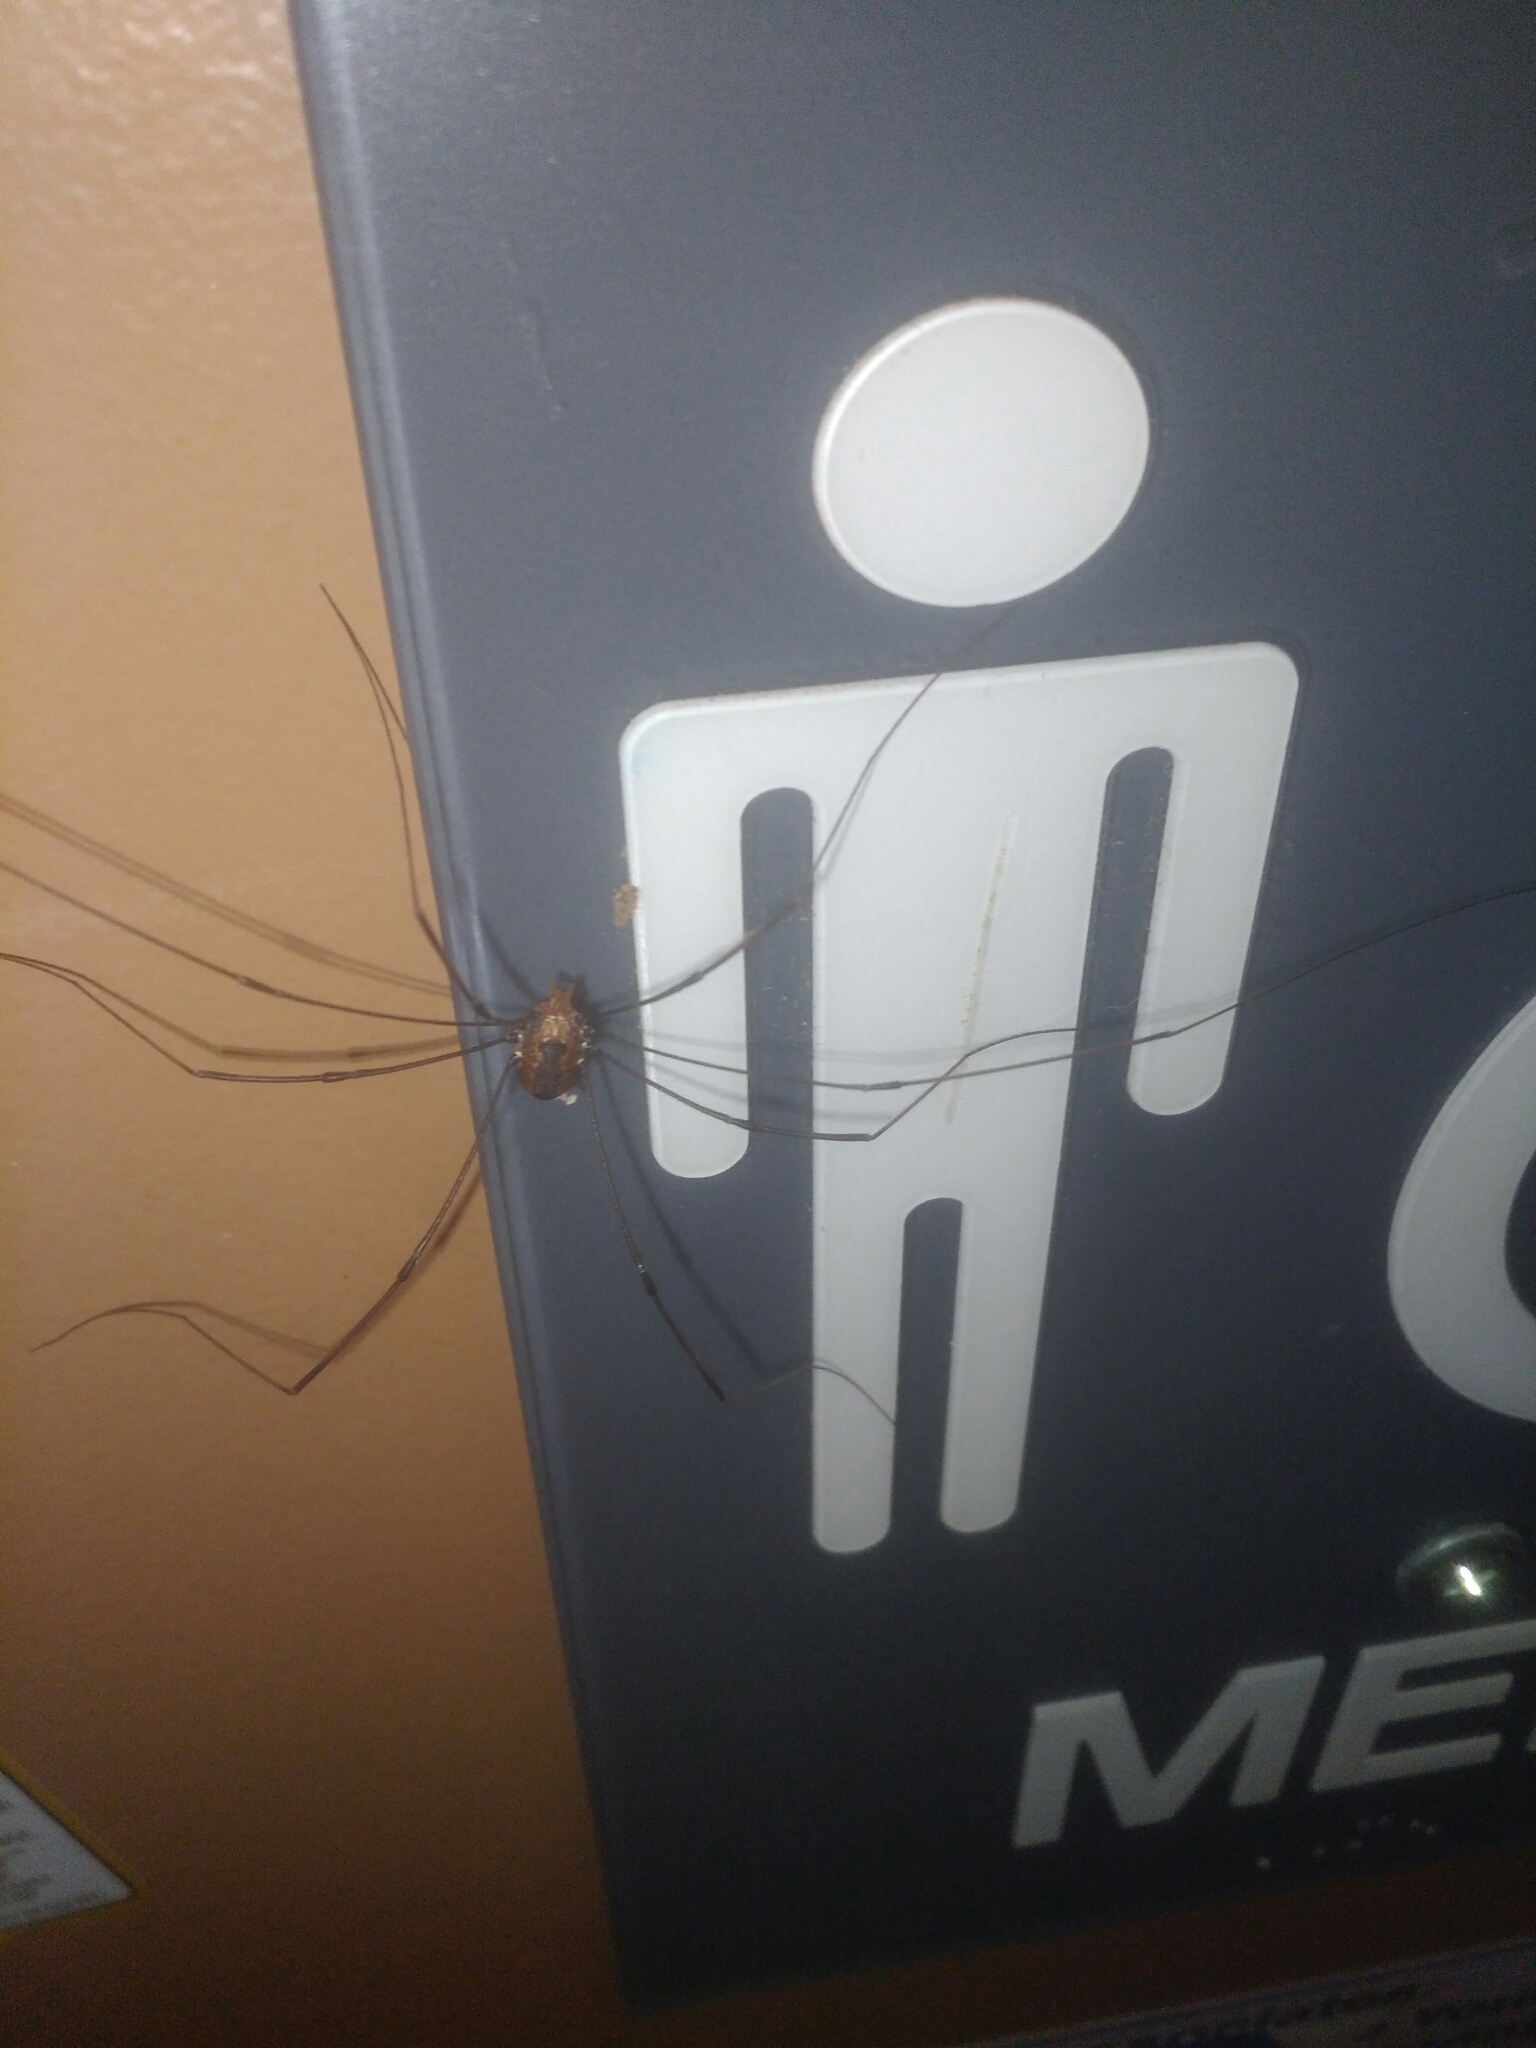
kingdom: Animalia
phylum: Arthropoda
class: Arachnida
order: Opiliones
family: Sclerosomatidae
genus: Leiobunum
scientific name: Leiobunum vittatum
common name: Eastern harvestman
